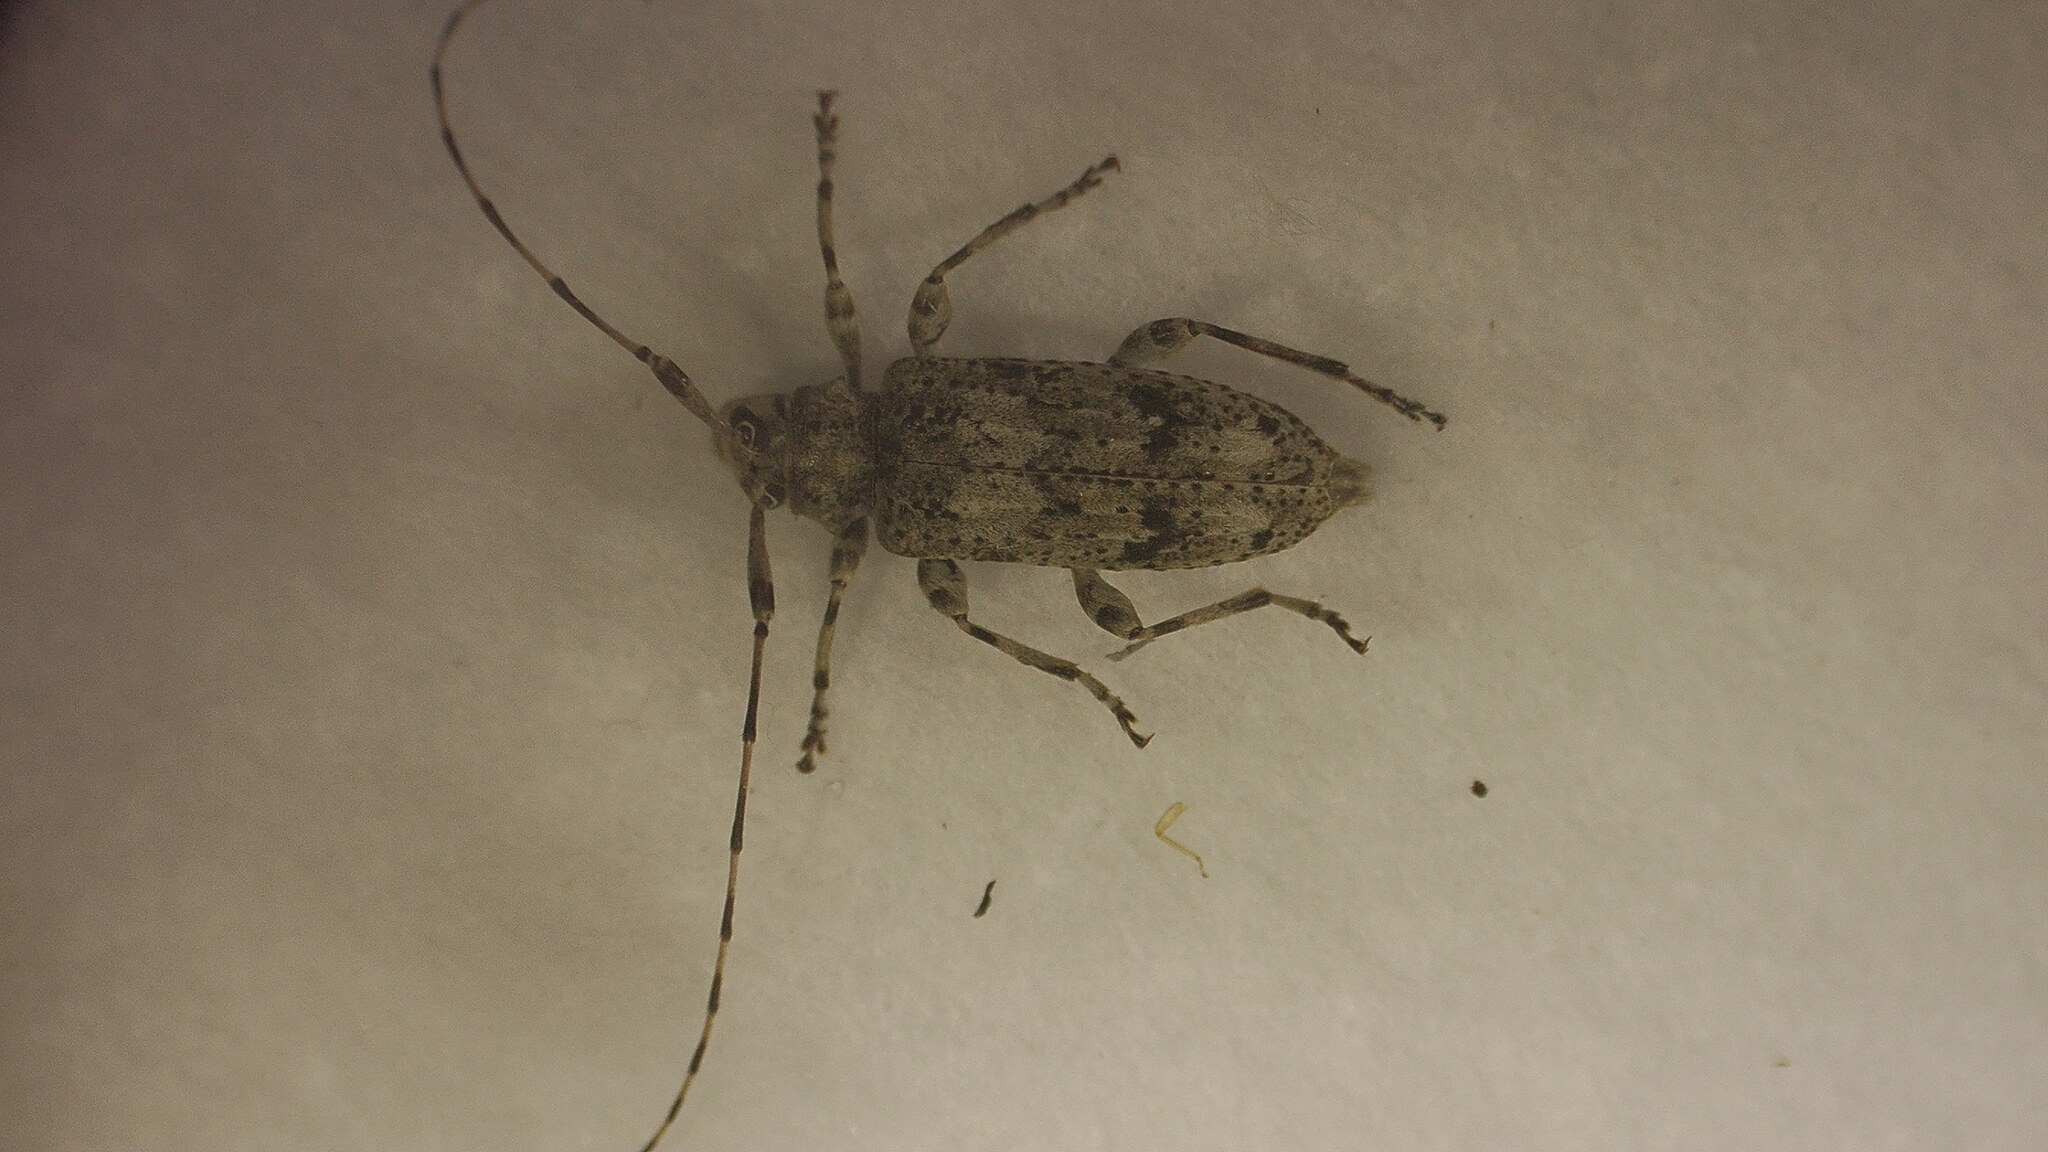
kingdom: Animalia
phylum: Arthropoda
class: Insecta
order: Coleoptera
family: Cerambycidae
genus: Sternidocinus
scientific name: Sternidocinus barbarus
